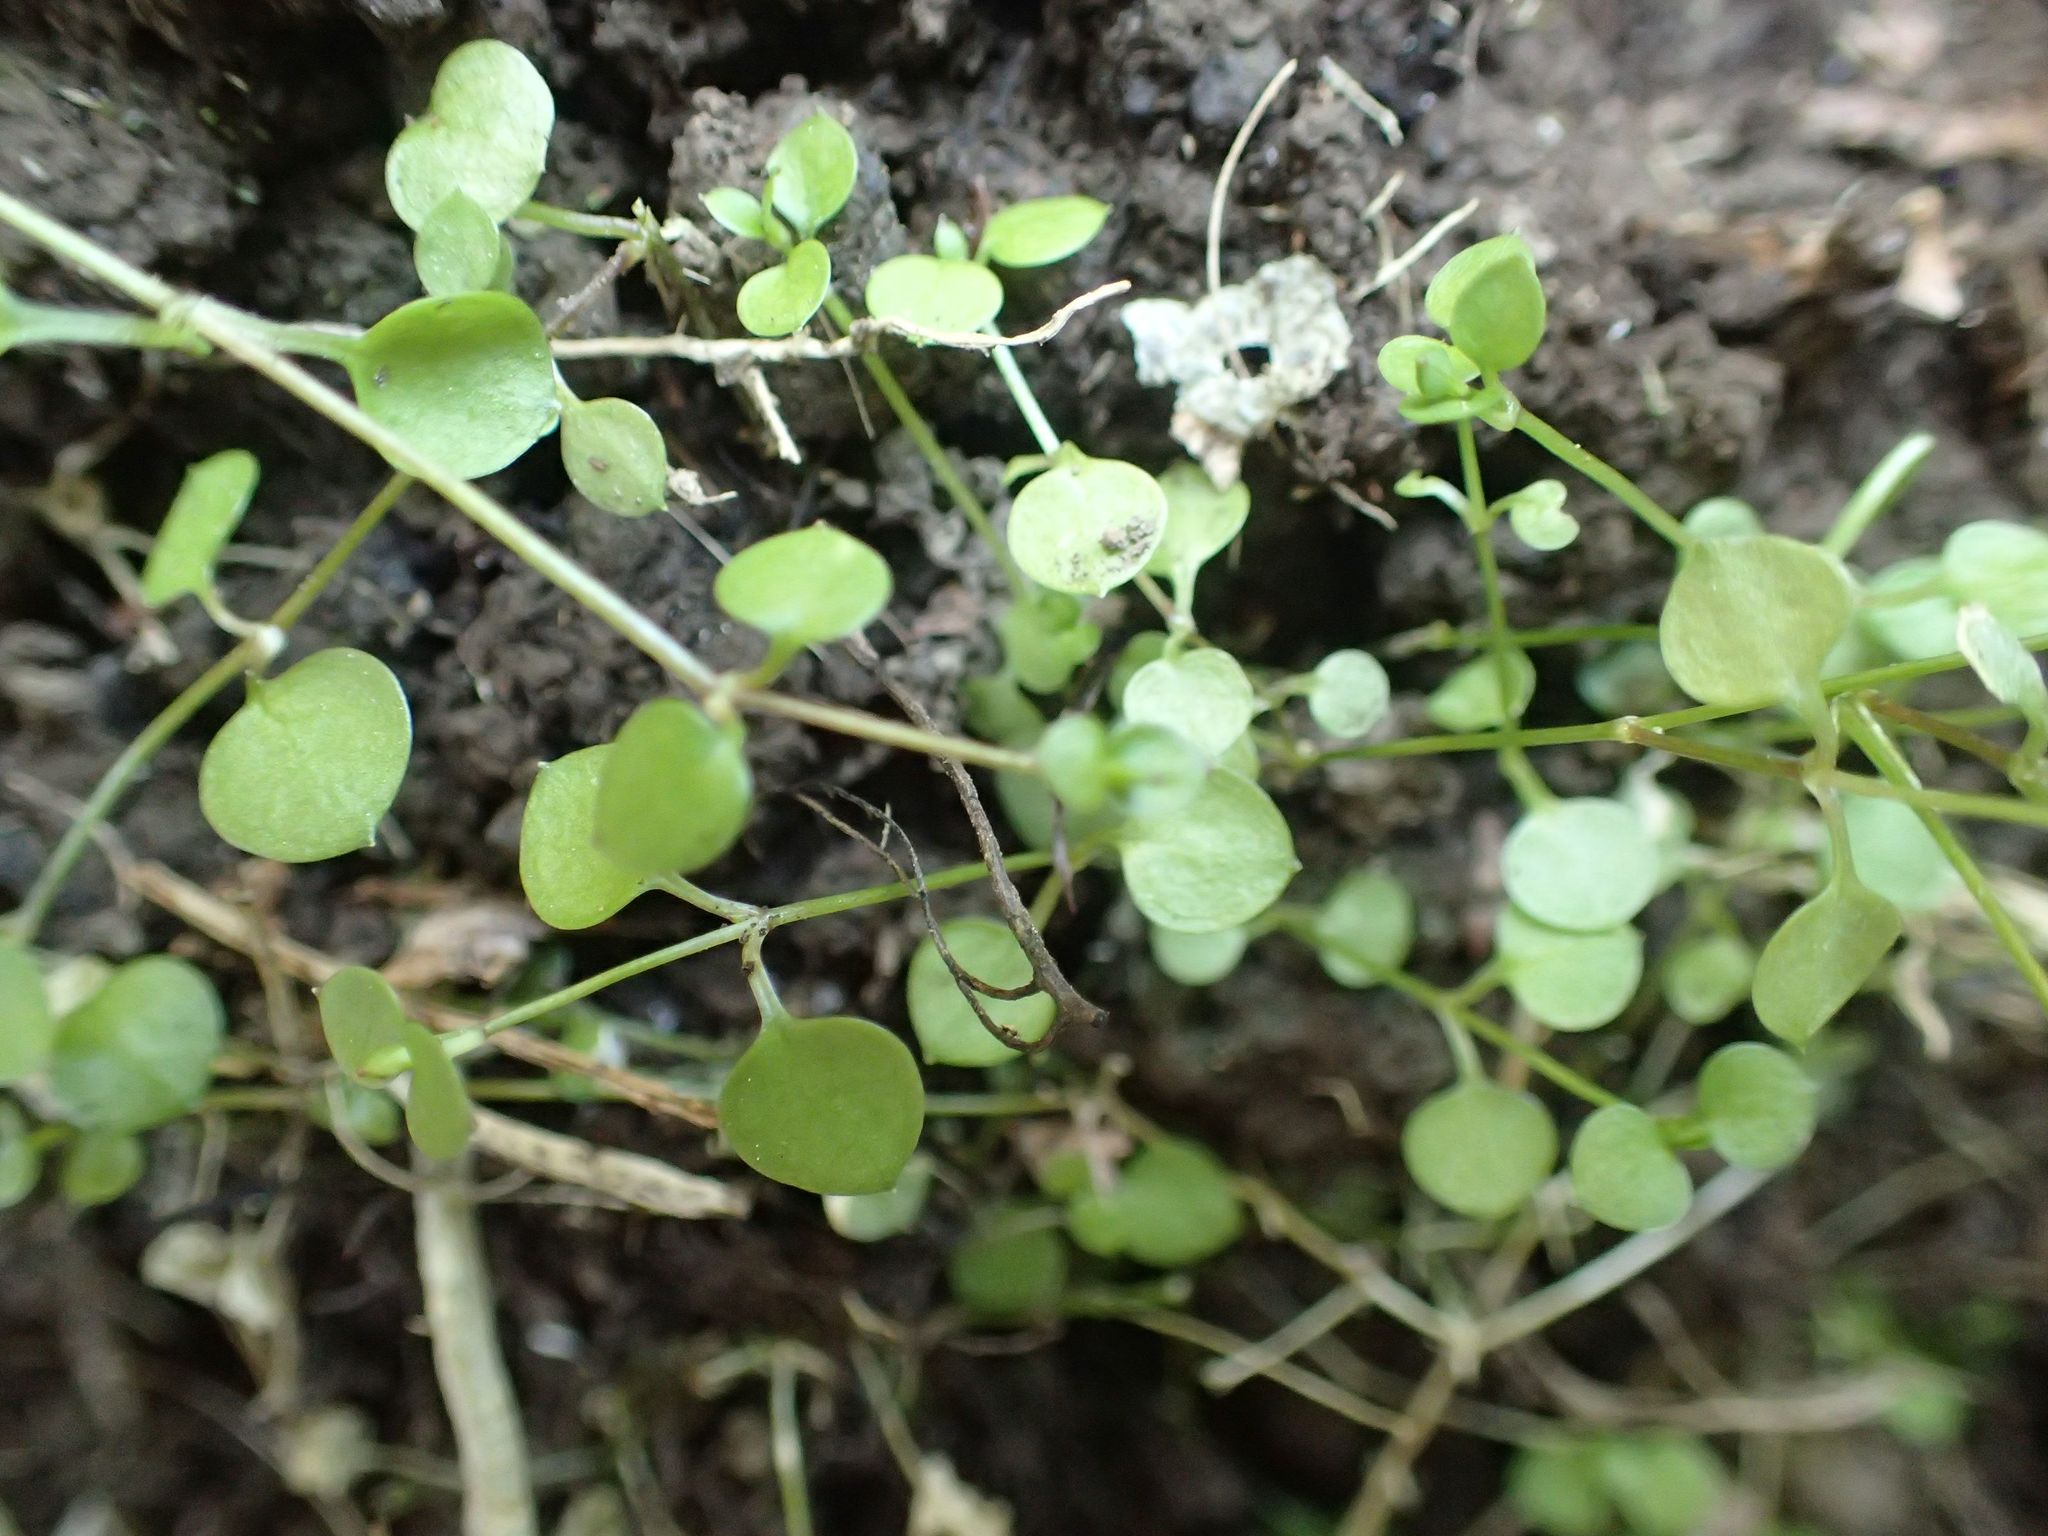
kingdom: Plantae
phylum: Tracheophyta
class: Magnoliopsida
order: Caryophyllales
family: Caryophyllaceae
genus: Stellaria
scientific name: Stellaria parviflora
